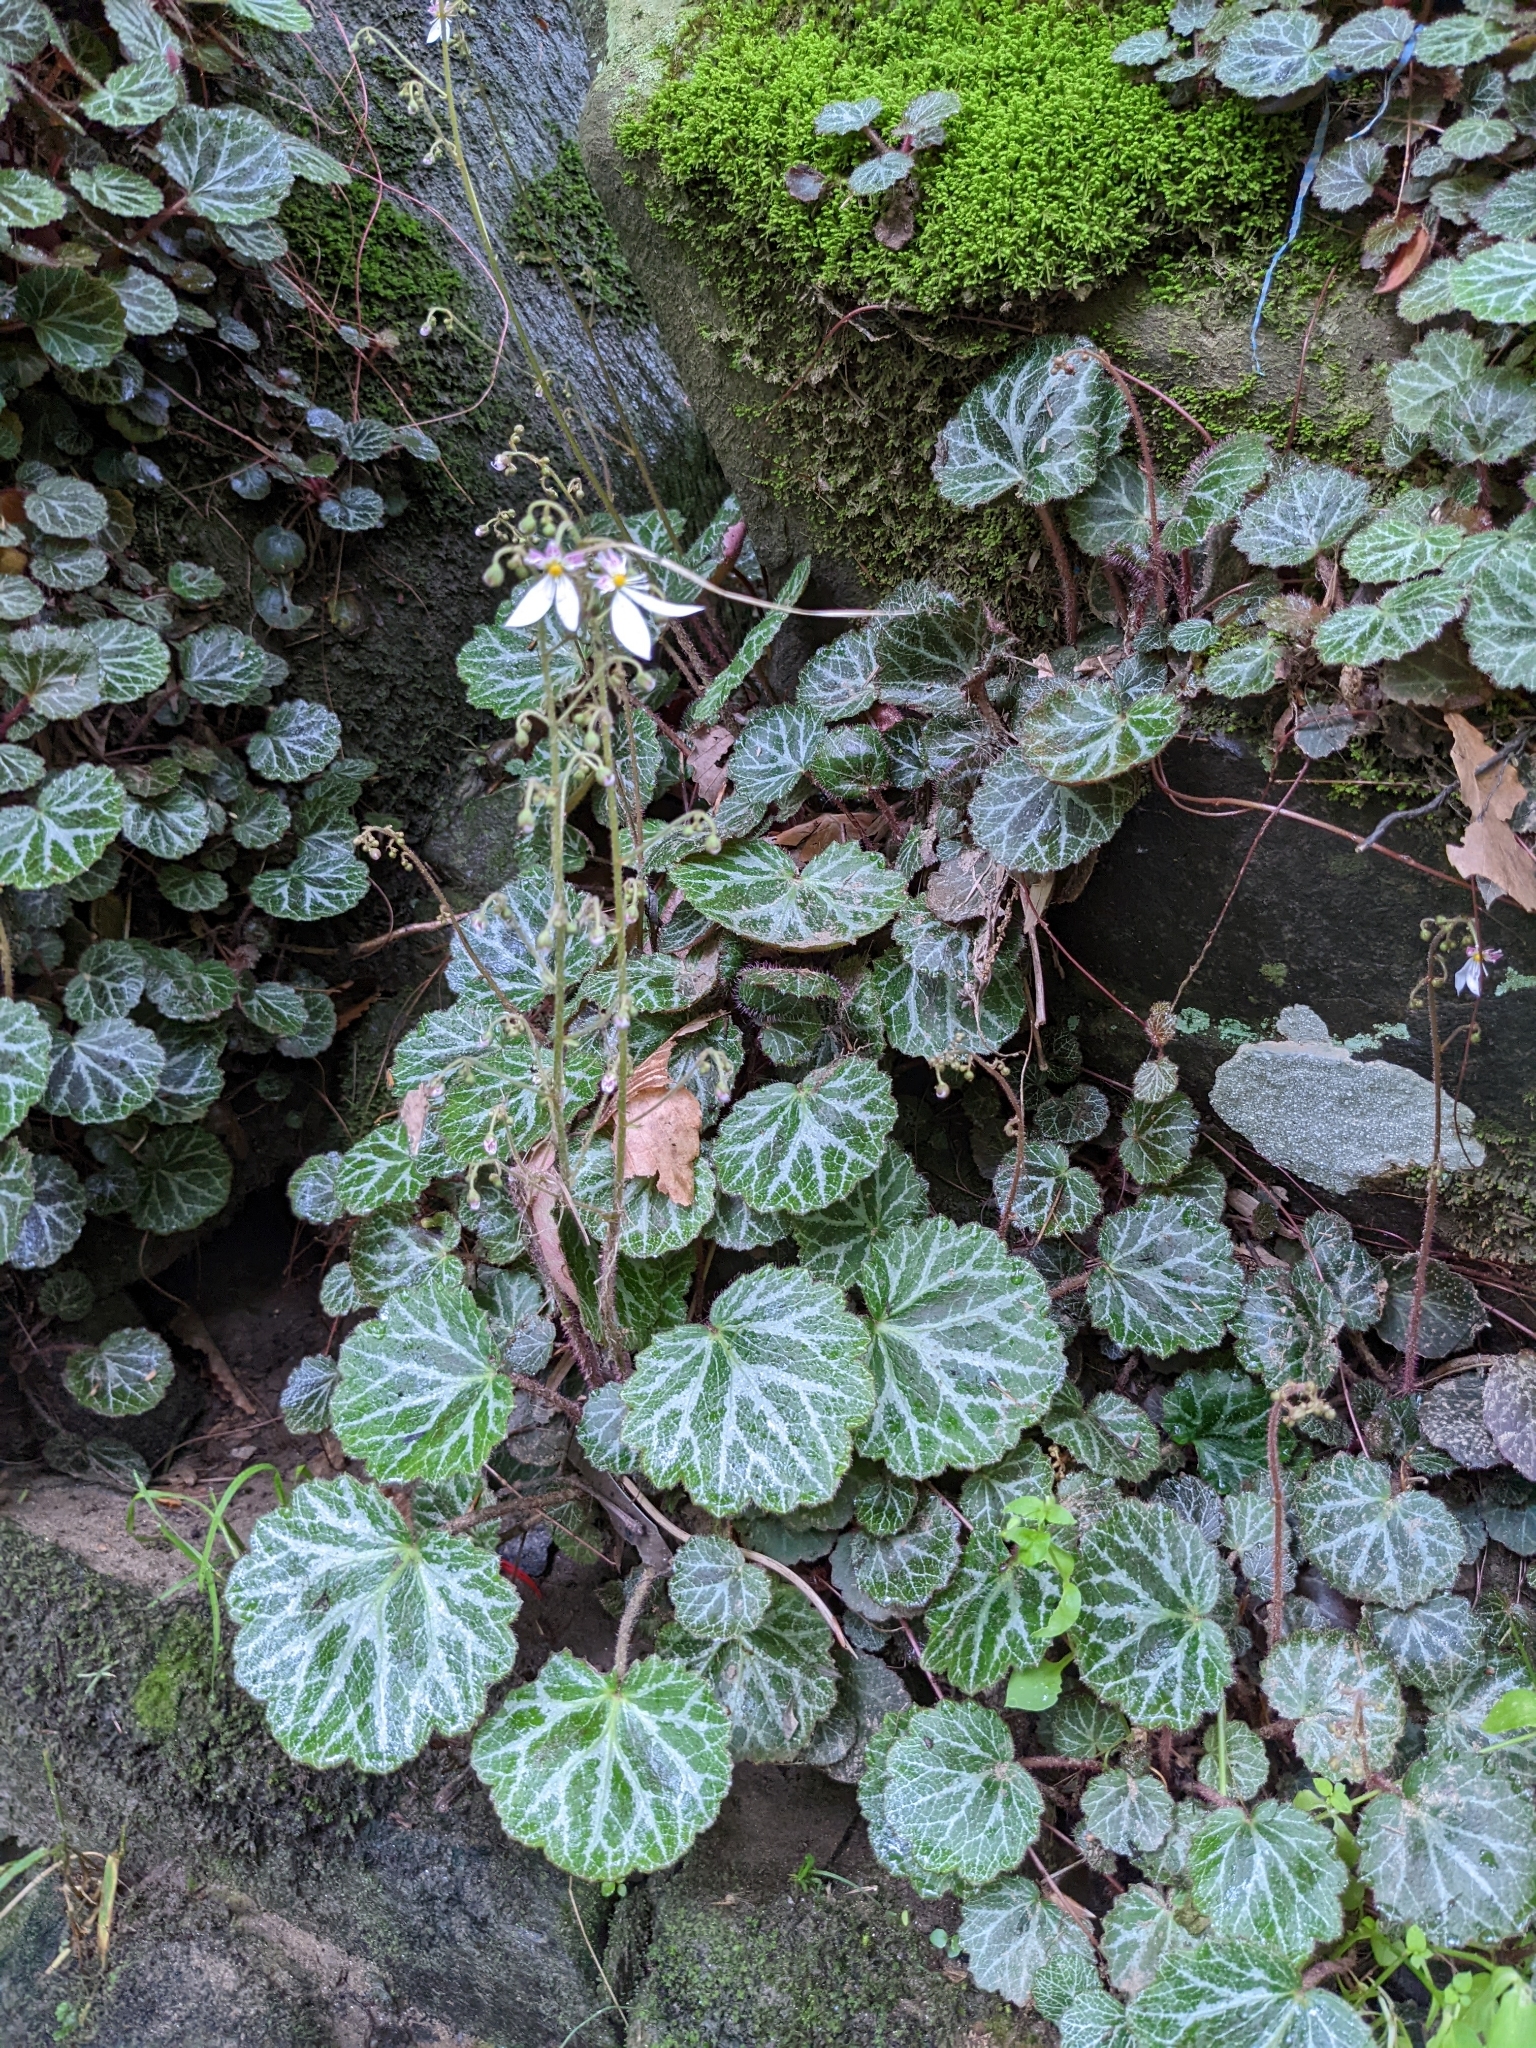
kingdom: Plantae
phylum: Tracheophyta
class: Magnoliopsida
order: Saxifragales
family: Saxifragaceae
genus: Saxifraga
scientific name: Saxifraga stolonifera
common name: Creeping saxifrage
